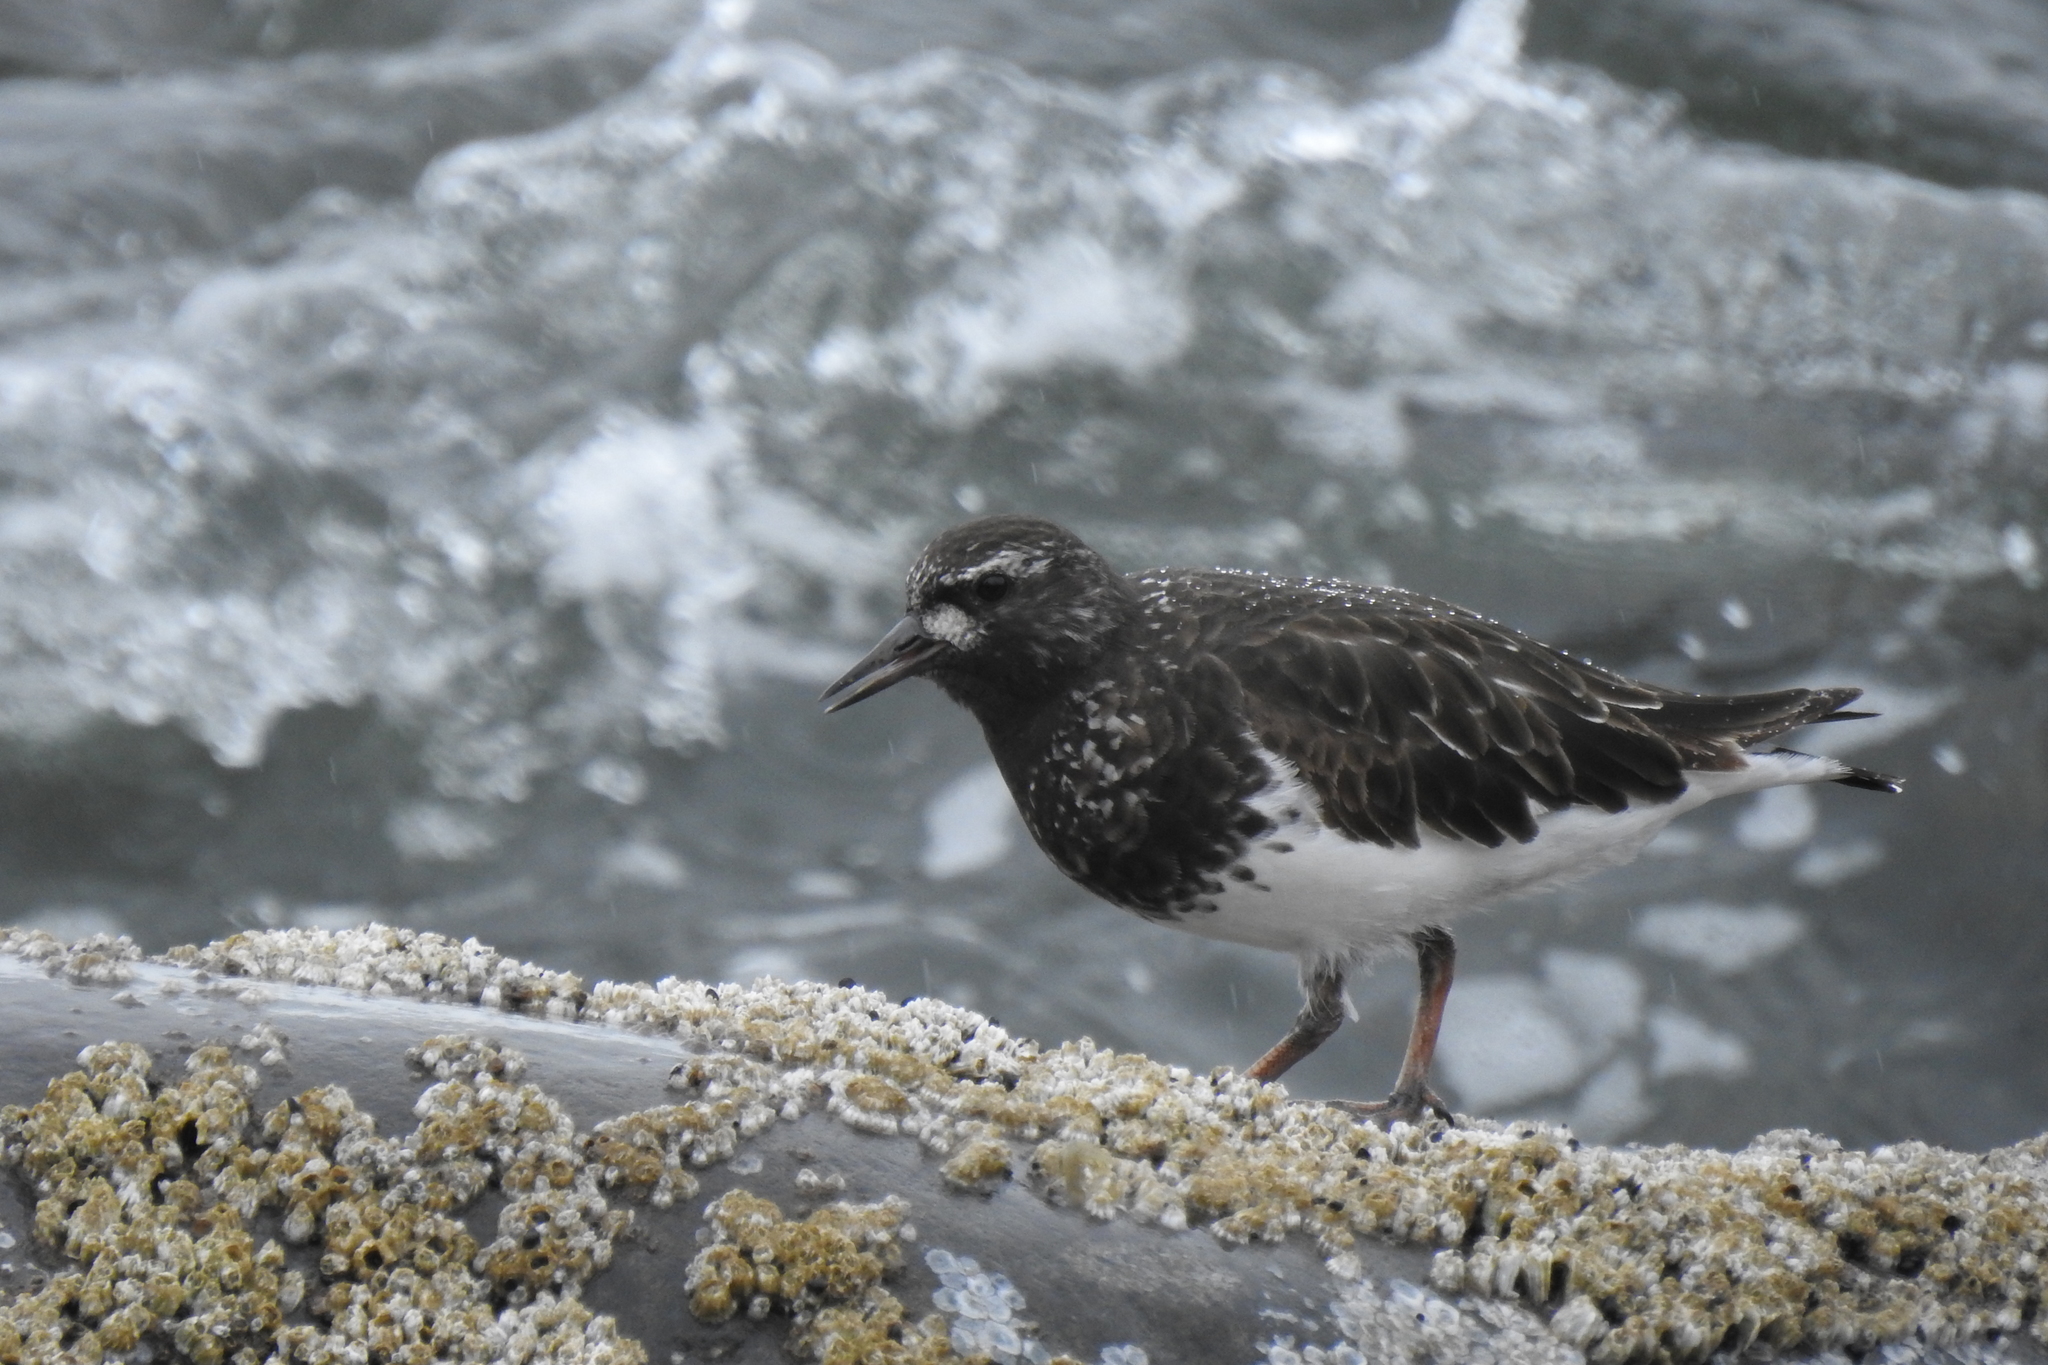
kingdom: Animalia
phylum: Chordata
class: Aves
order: Charadriiformes
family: Scolopacidae
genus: Arenaria
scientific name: Arenaria melanocephala
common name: Black turnstone
